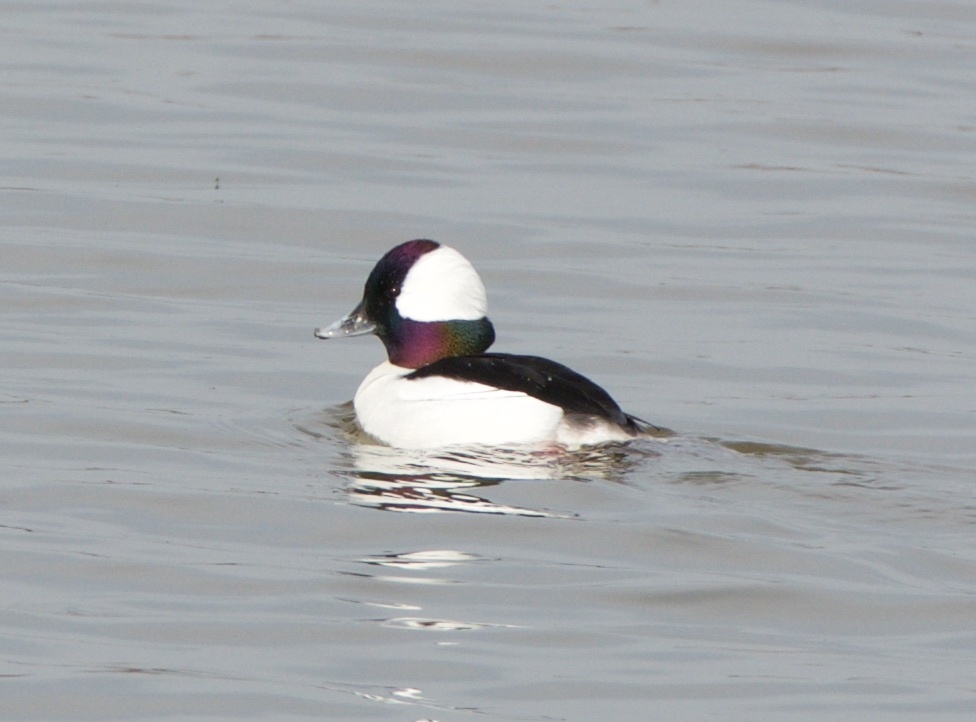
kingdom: Animalia
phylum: Chordata
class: Aves
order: Anseriformes
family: Anatidae
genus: Bucephala
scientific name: Bucephala albeola
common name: Bufflehead
